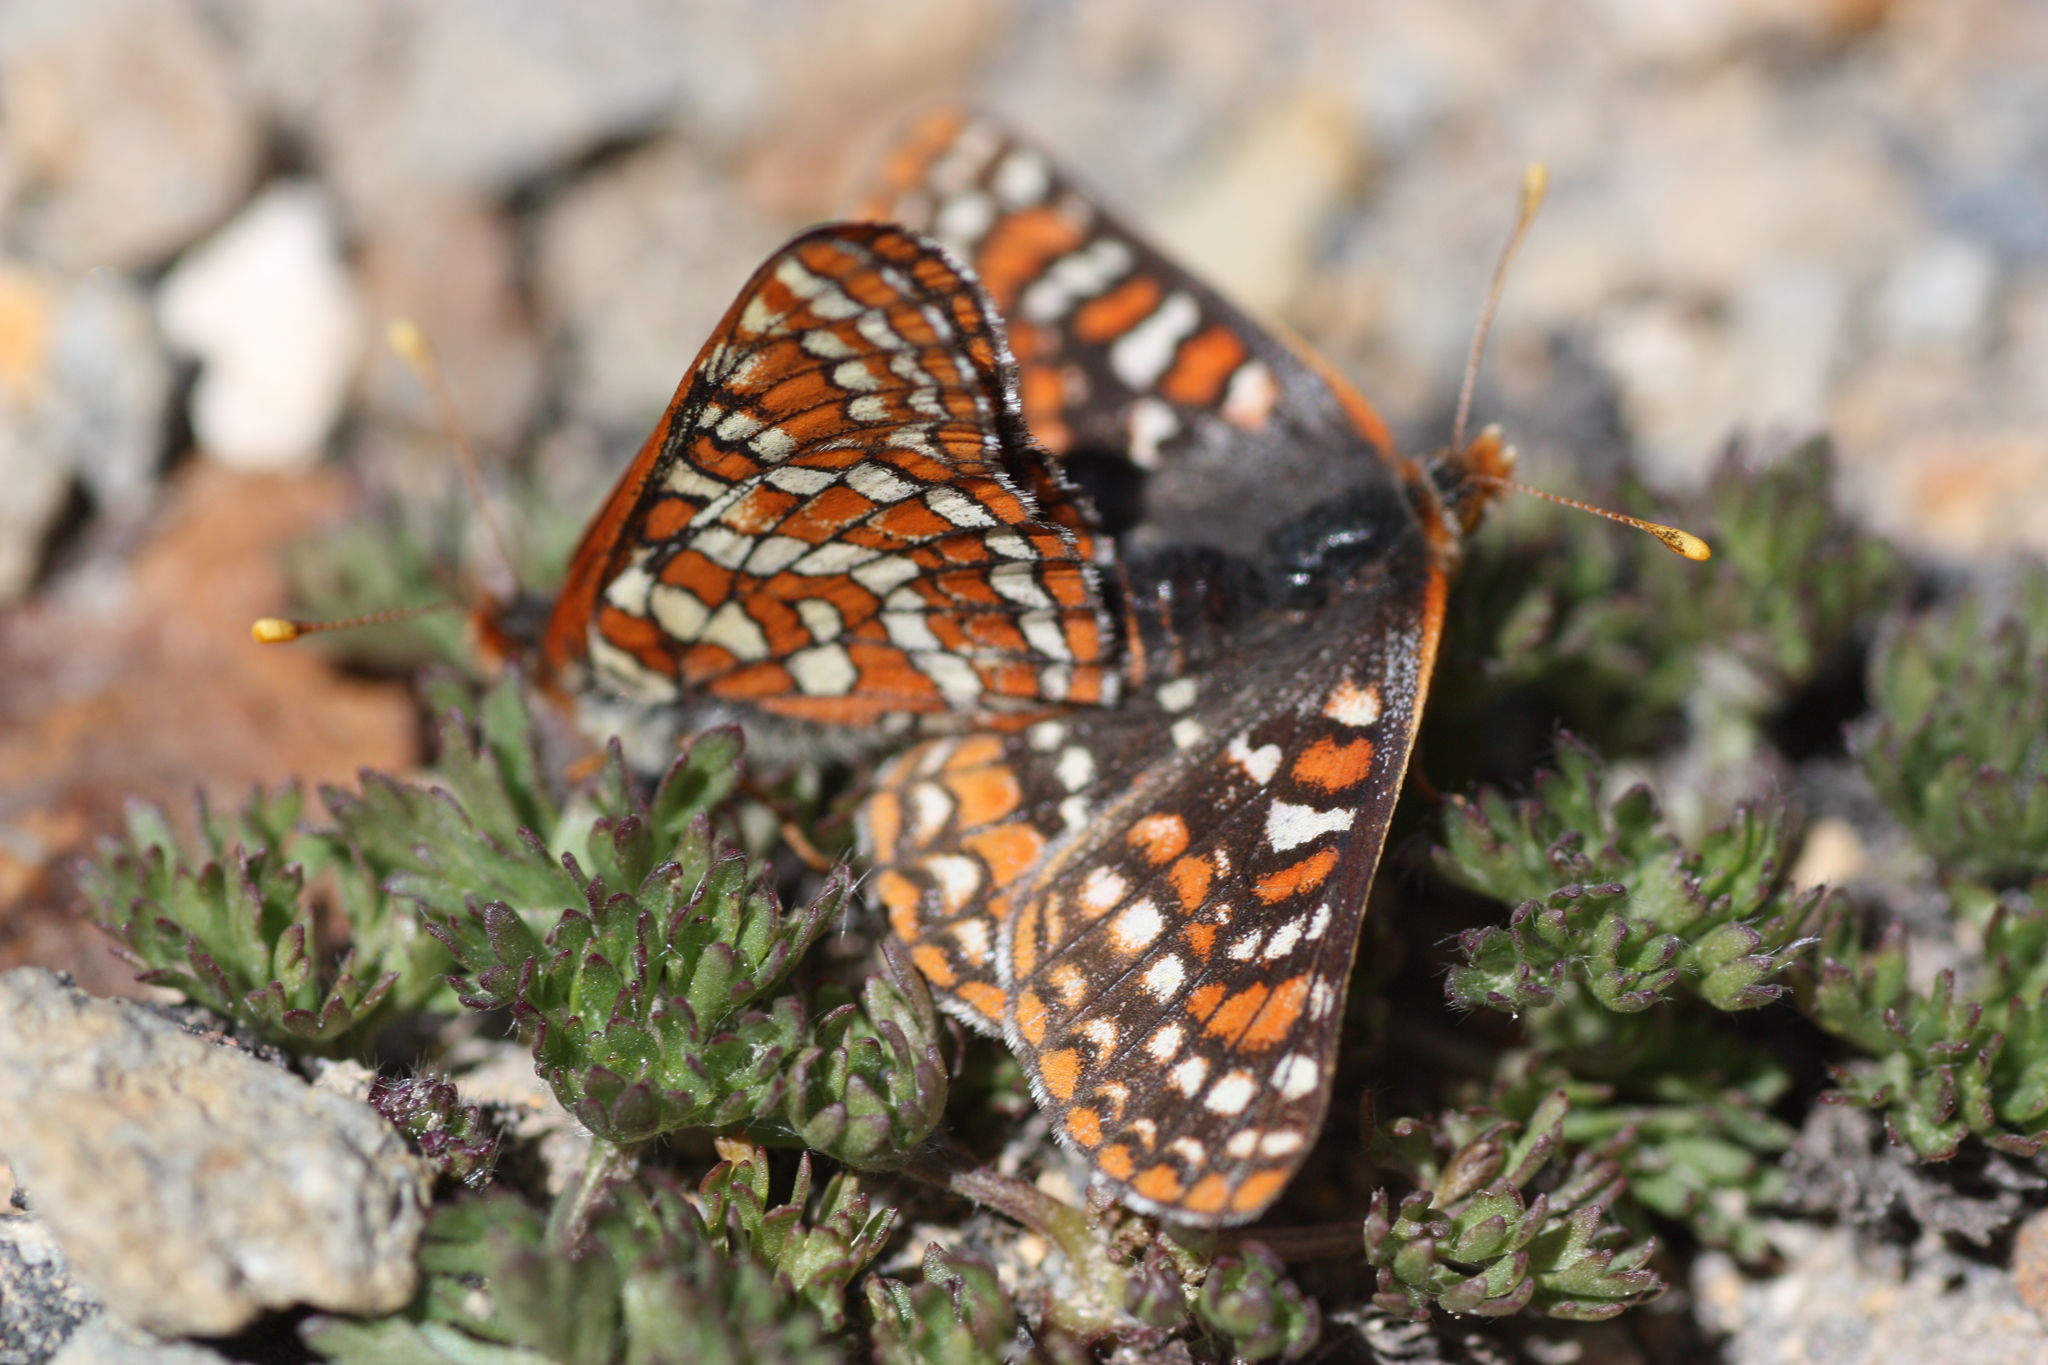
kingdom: Animalia
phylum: Arthropoda
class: Insecta
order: Lepidoptera
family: Nymphalidae
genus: Occidryas
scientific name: Occidryas editha
